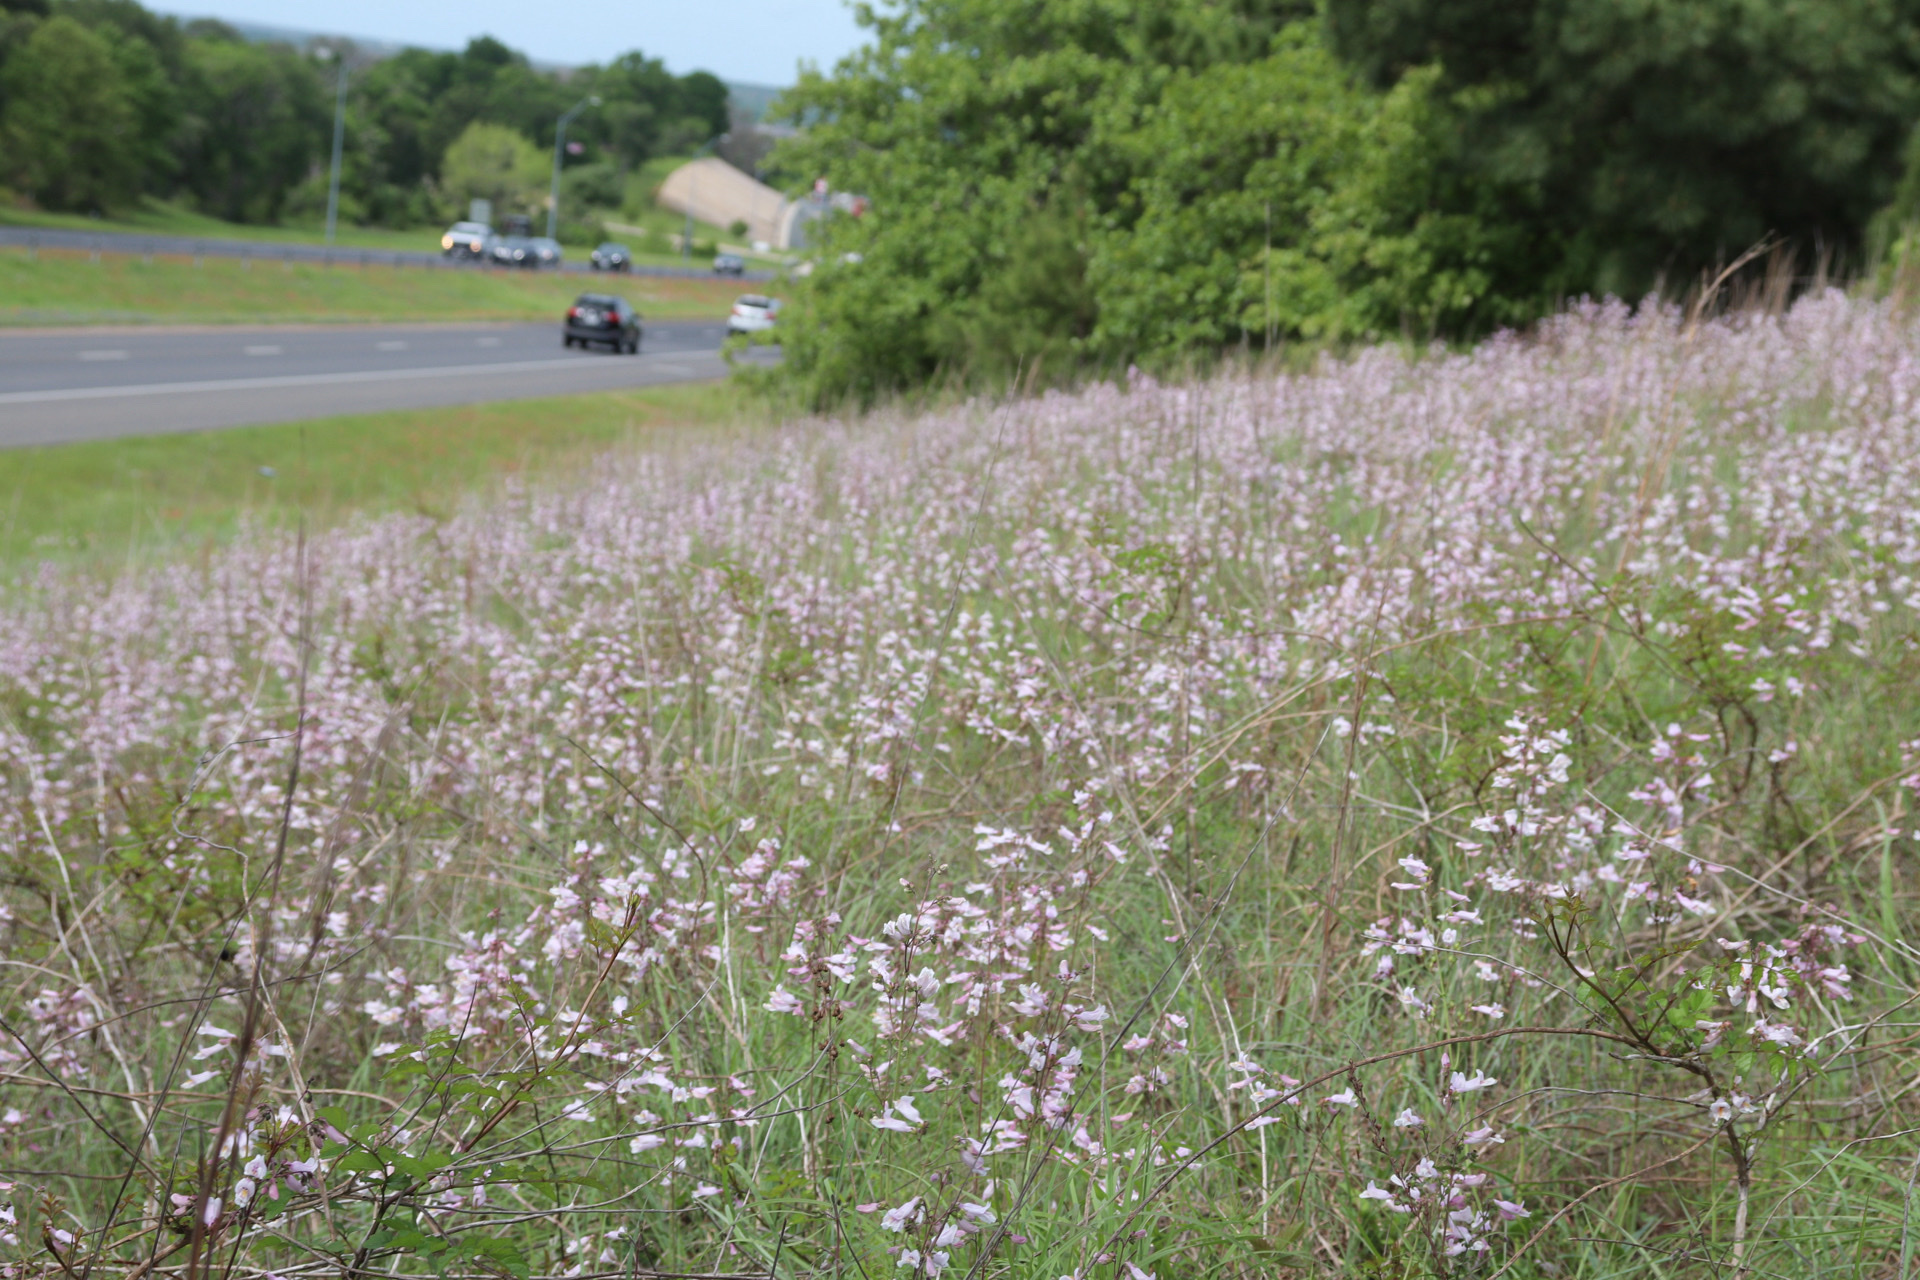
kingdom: Plantae
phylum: Tracheophyta
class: Magnoliopsida
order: Lamiales
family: Plantaginaceae
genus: Penstemon
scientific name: Penstemon laxiflorus
